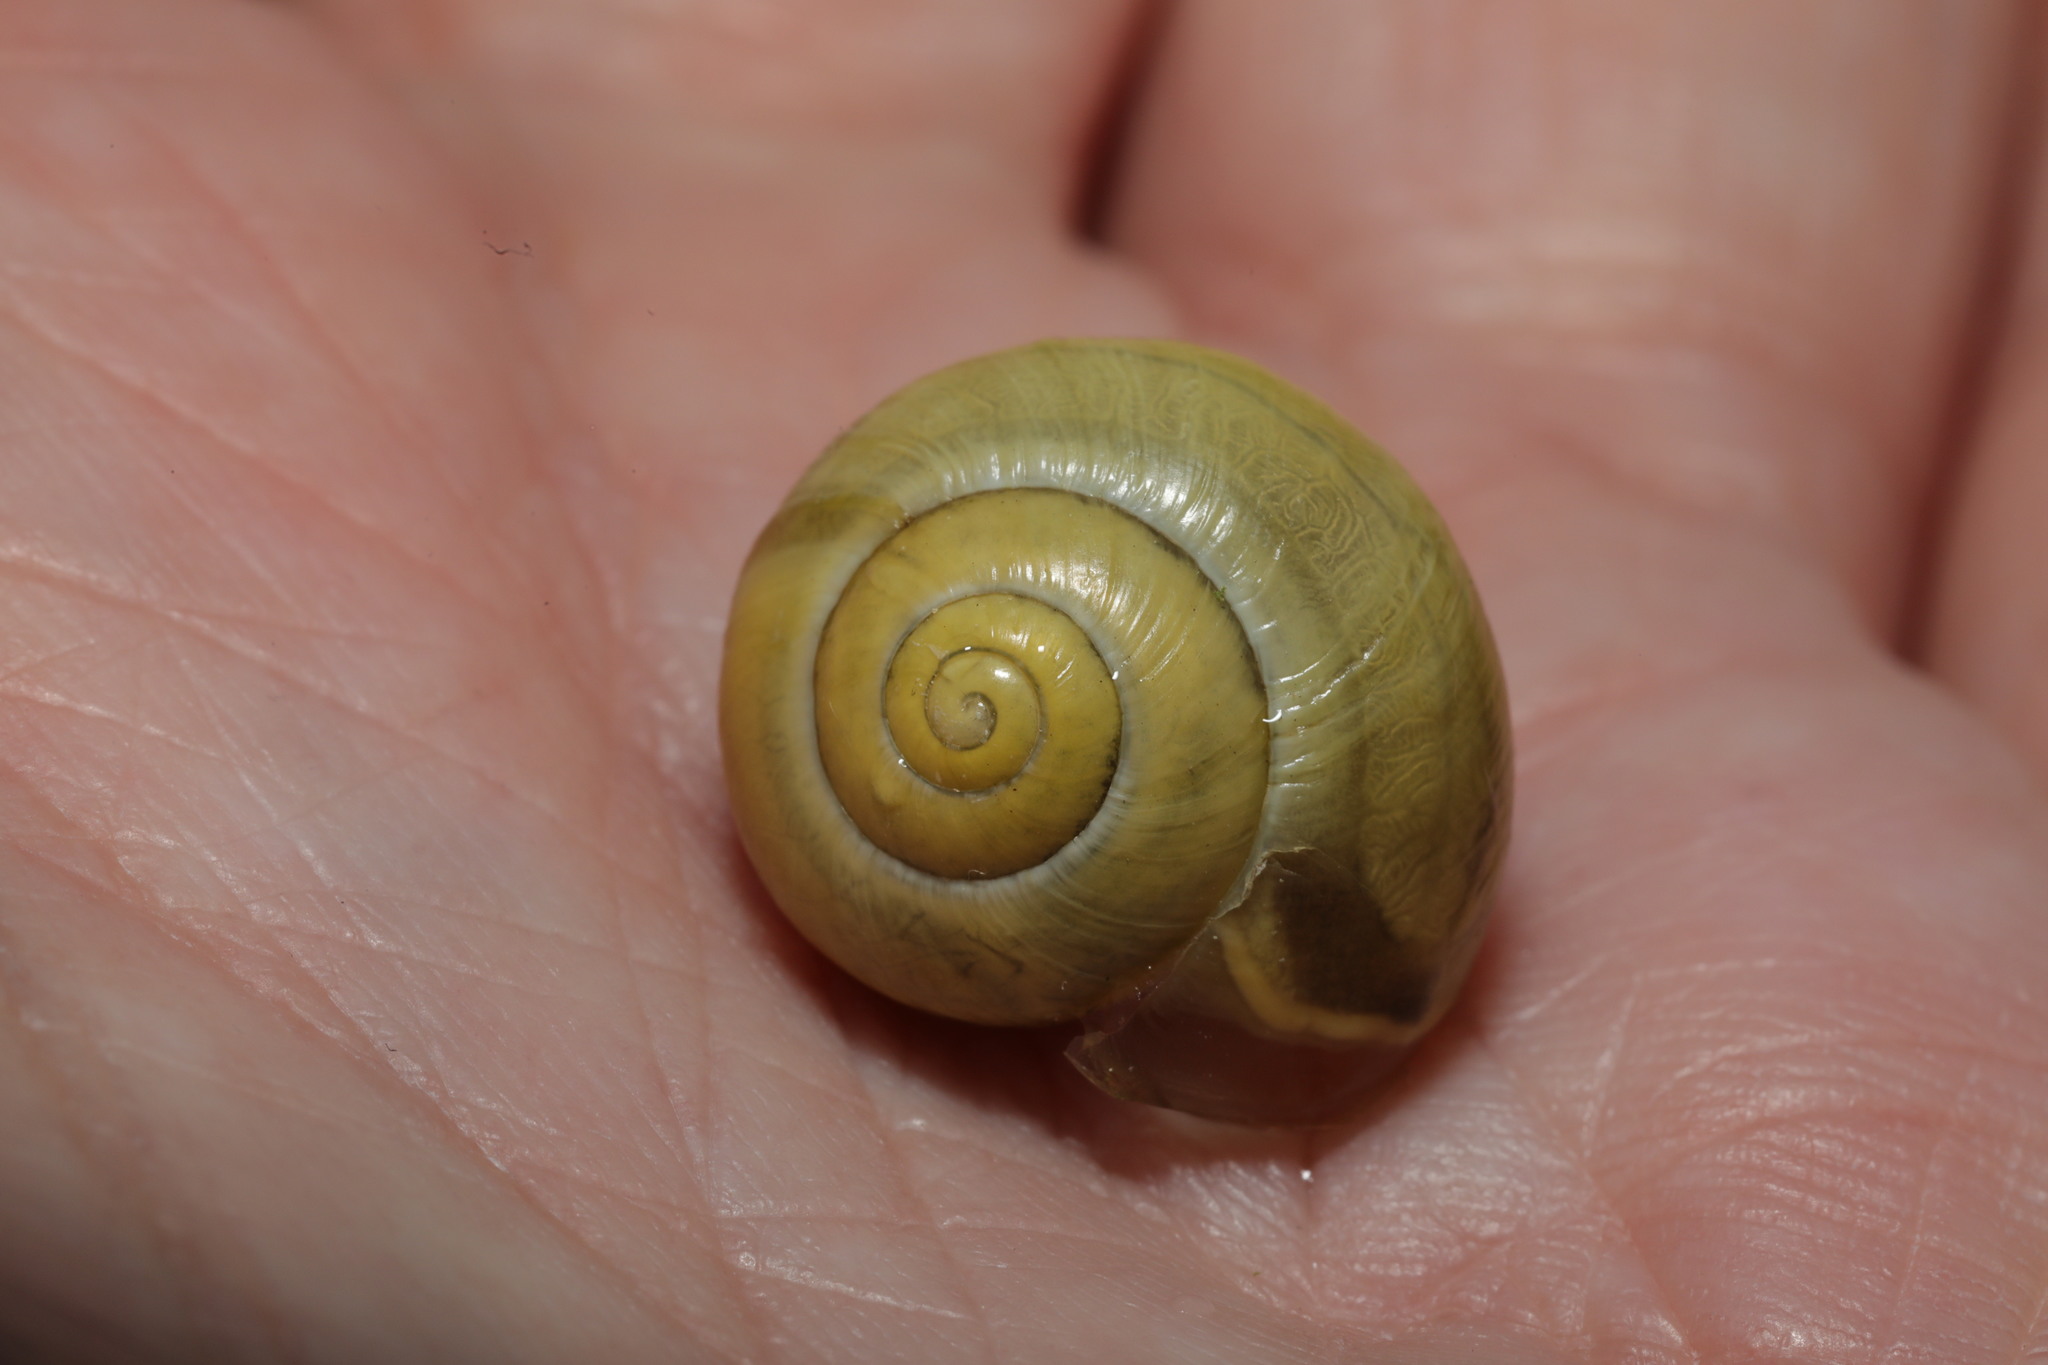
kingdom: Animalia
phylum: Mollusca
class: Gastropoda
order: Stylommatophora
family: Helicidae
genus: Cepaea
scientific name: Cepaea hortensis
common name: White-lip gardensnail
